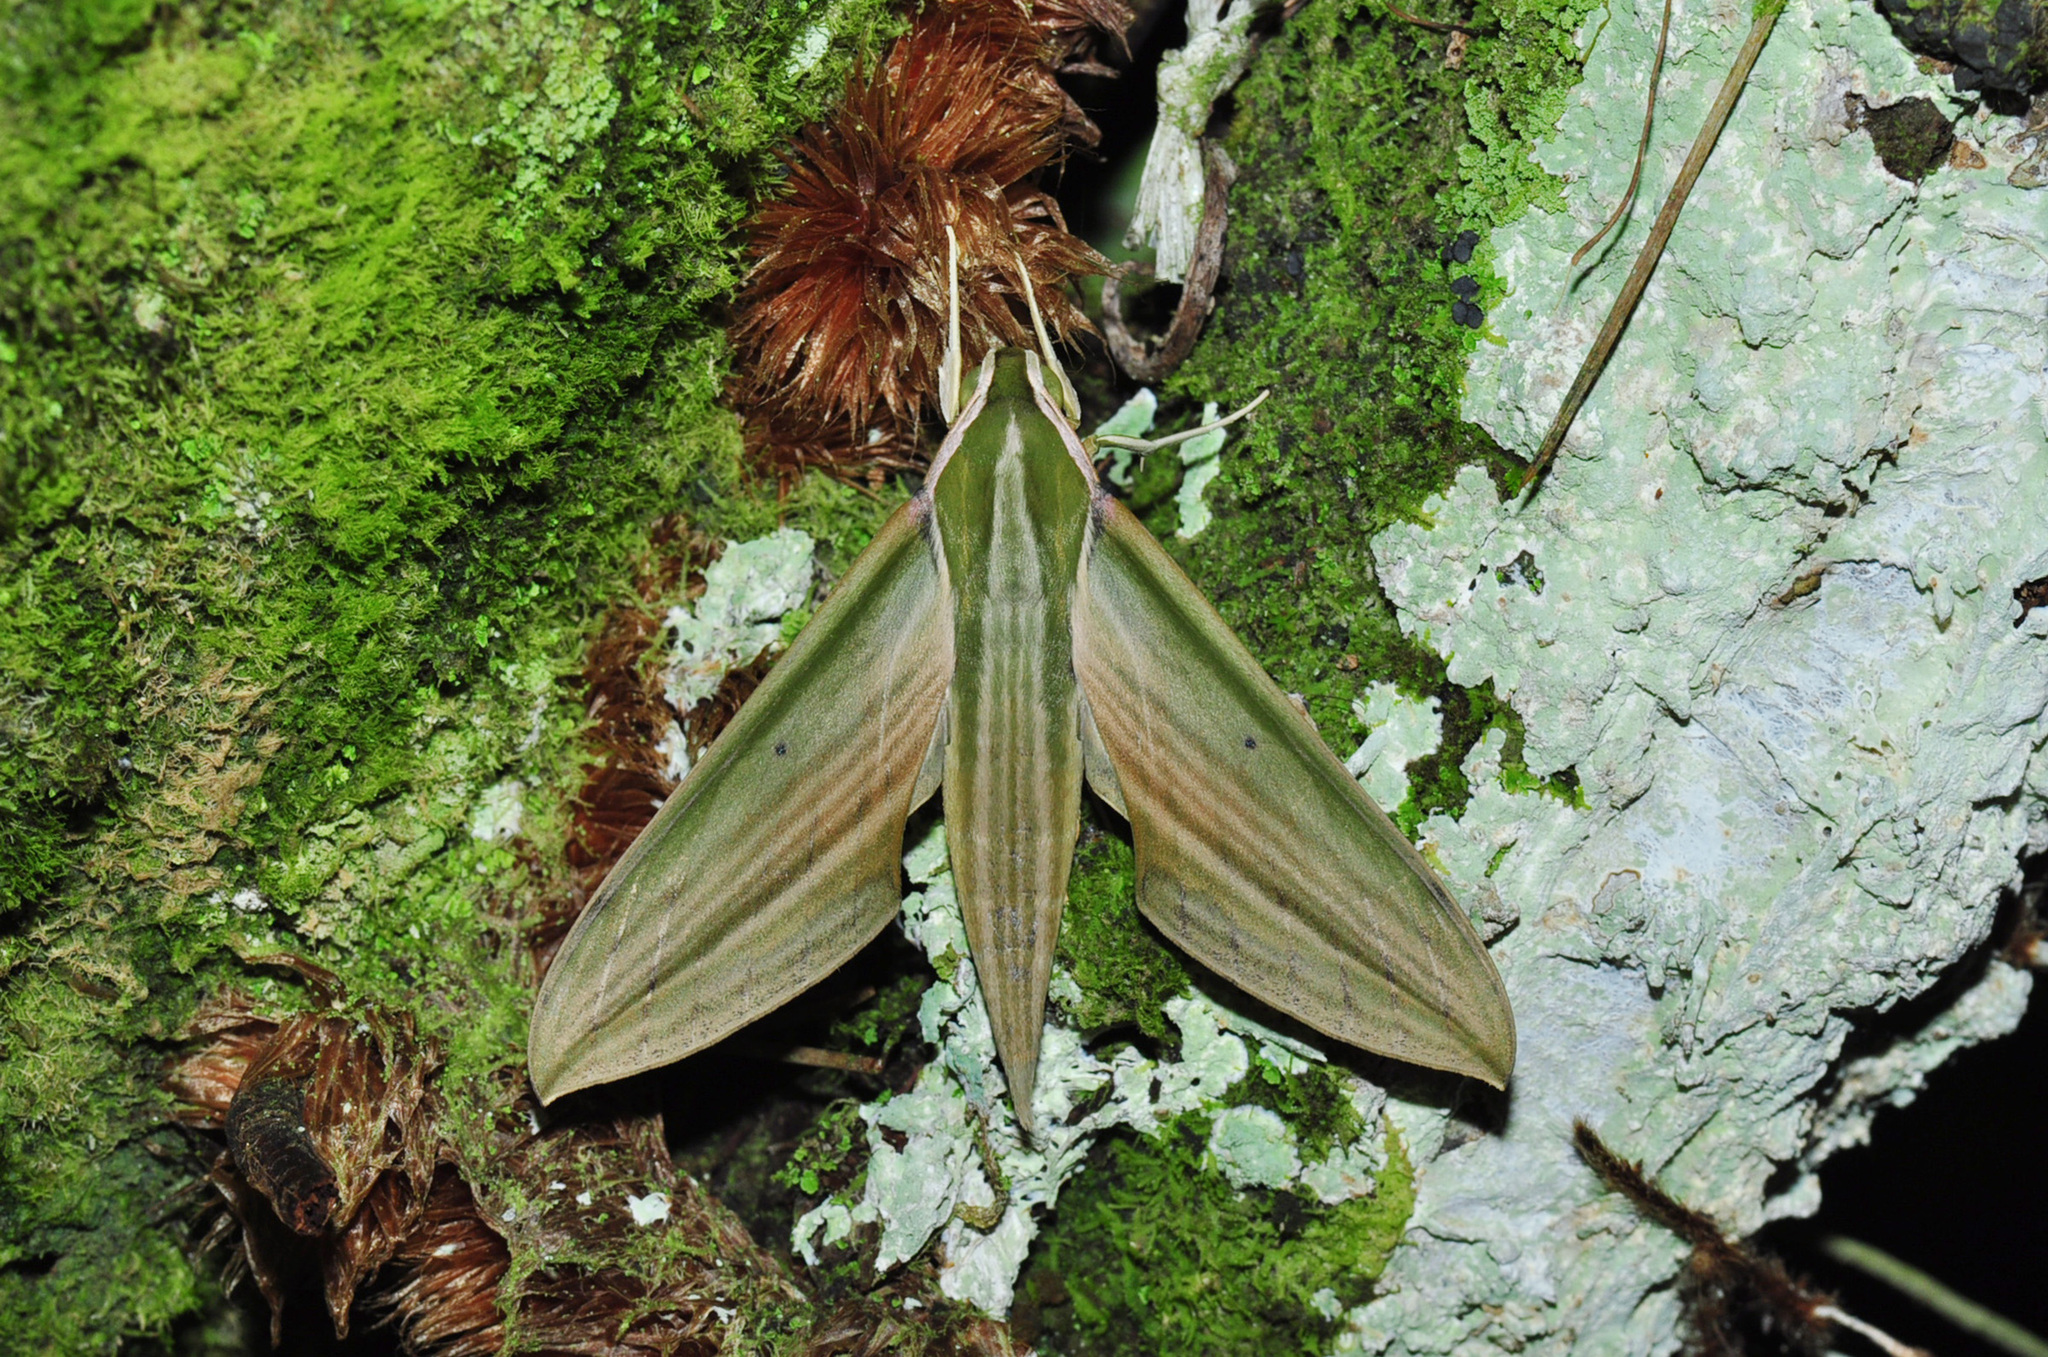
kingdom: Animalia
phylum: Arthropoda
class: Insecta
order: Lepidoptera
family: Sphingidae
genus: Cechetra
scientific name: Cechetra lineosa
